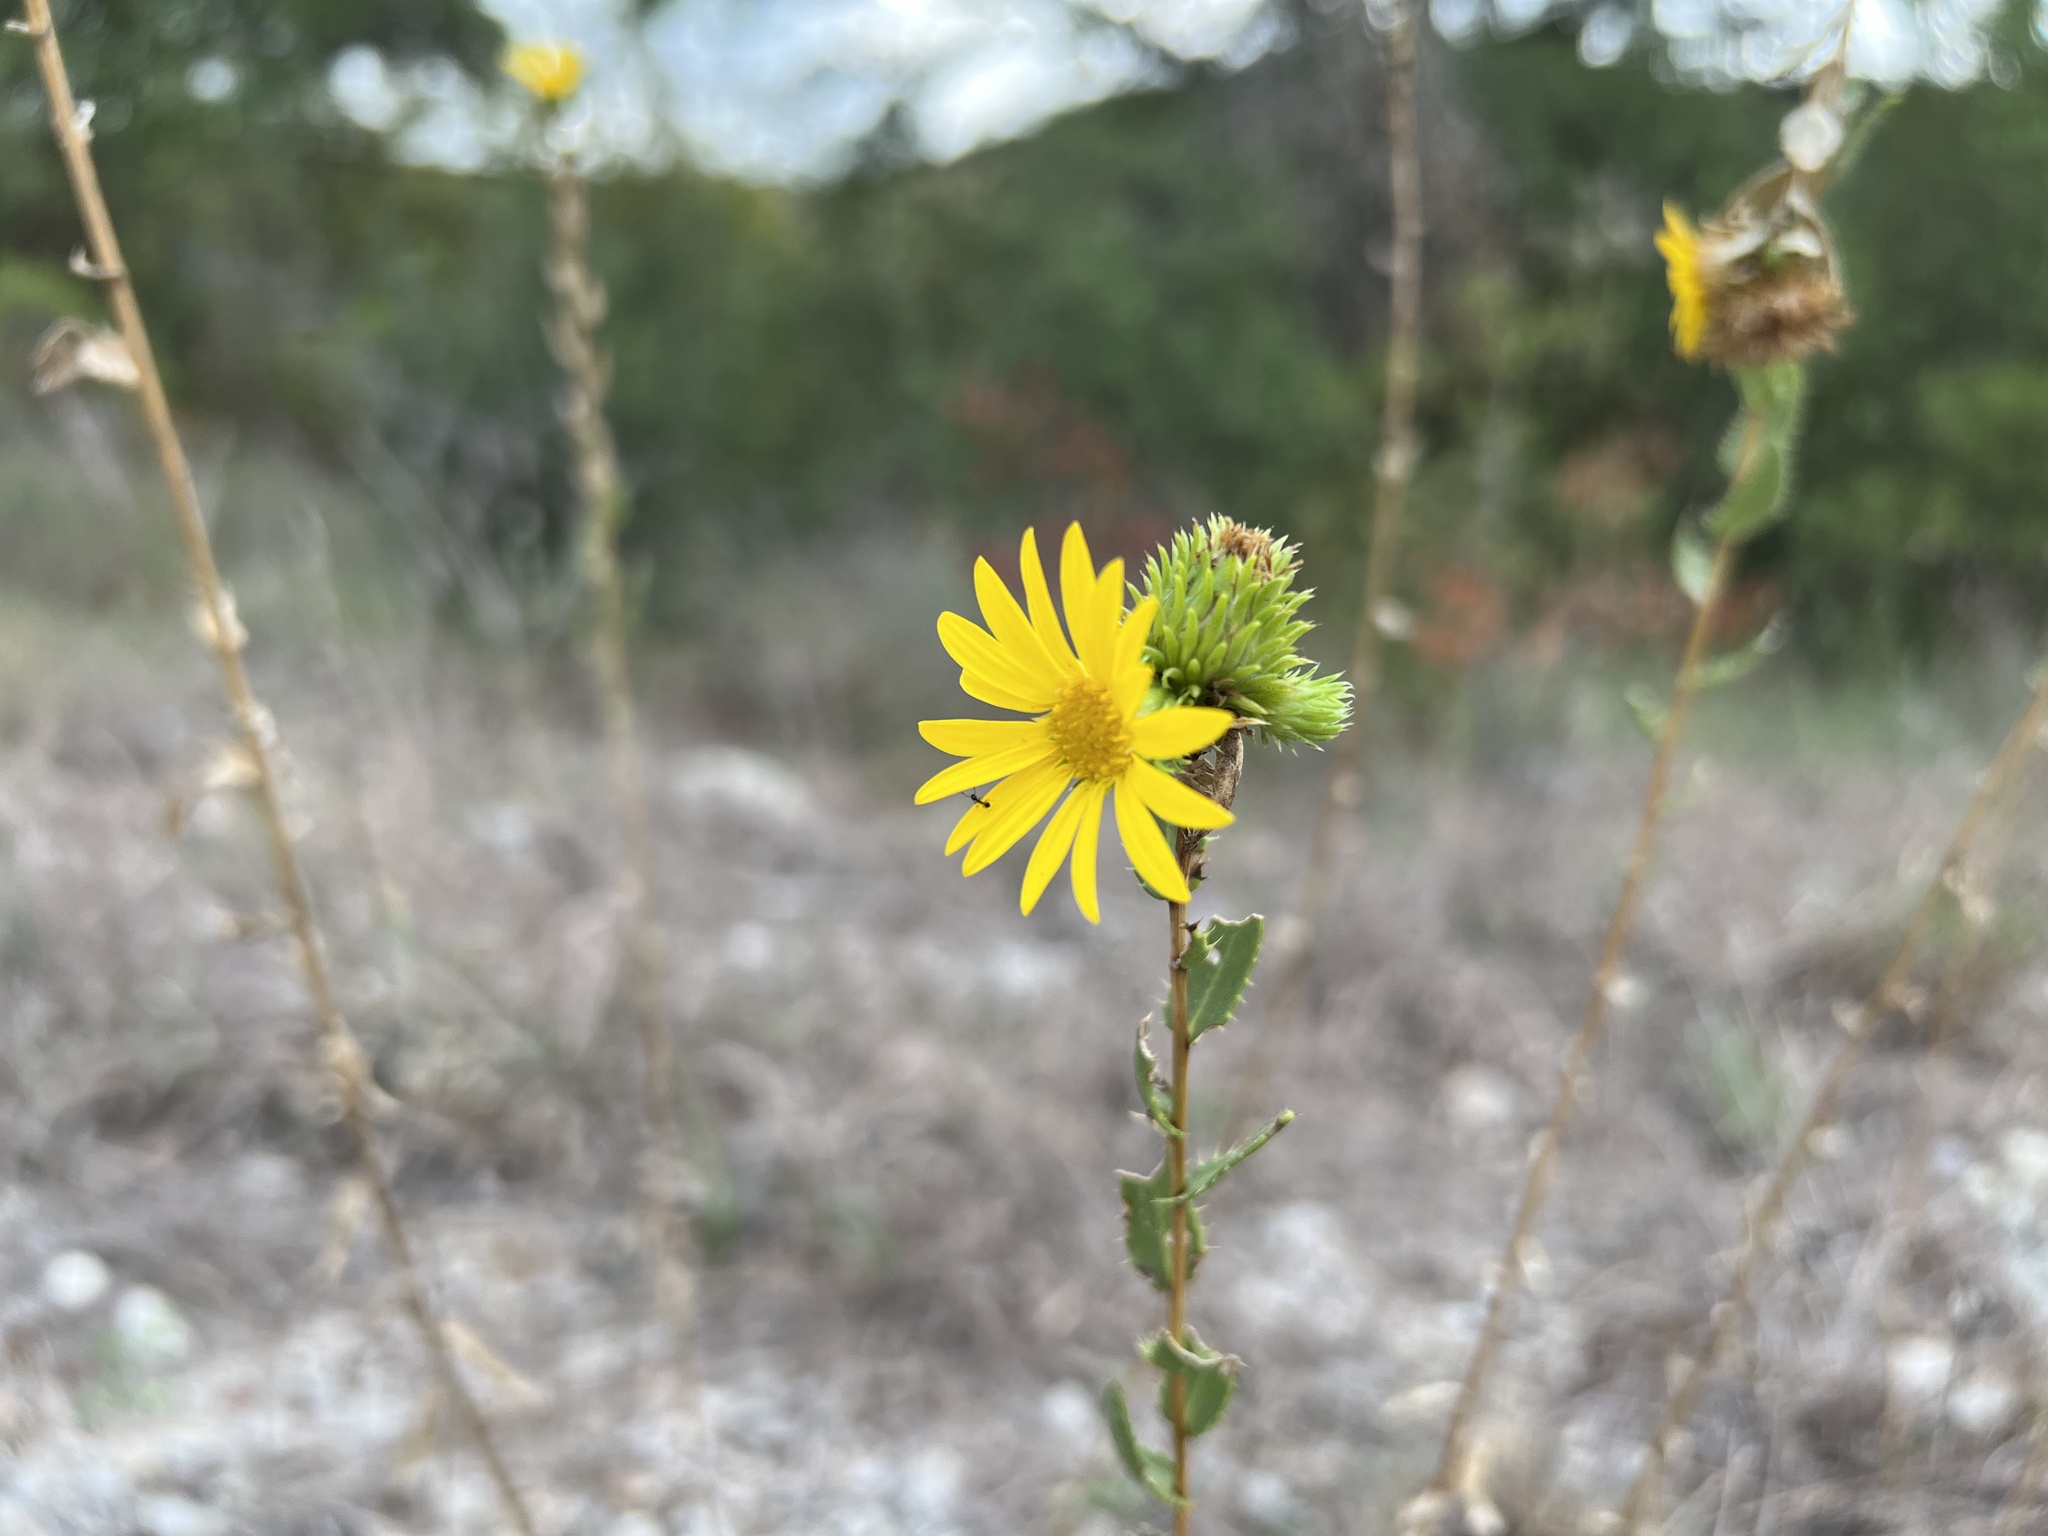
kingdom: Plantae
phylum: Tracheophyta
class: Magnoliopsida
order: Asterales
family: Asteraceae
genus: Grindelia
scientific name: Grindelia lanceolata
